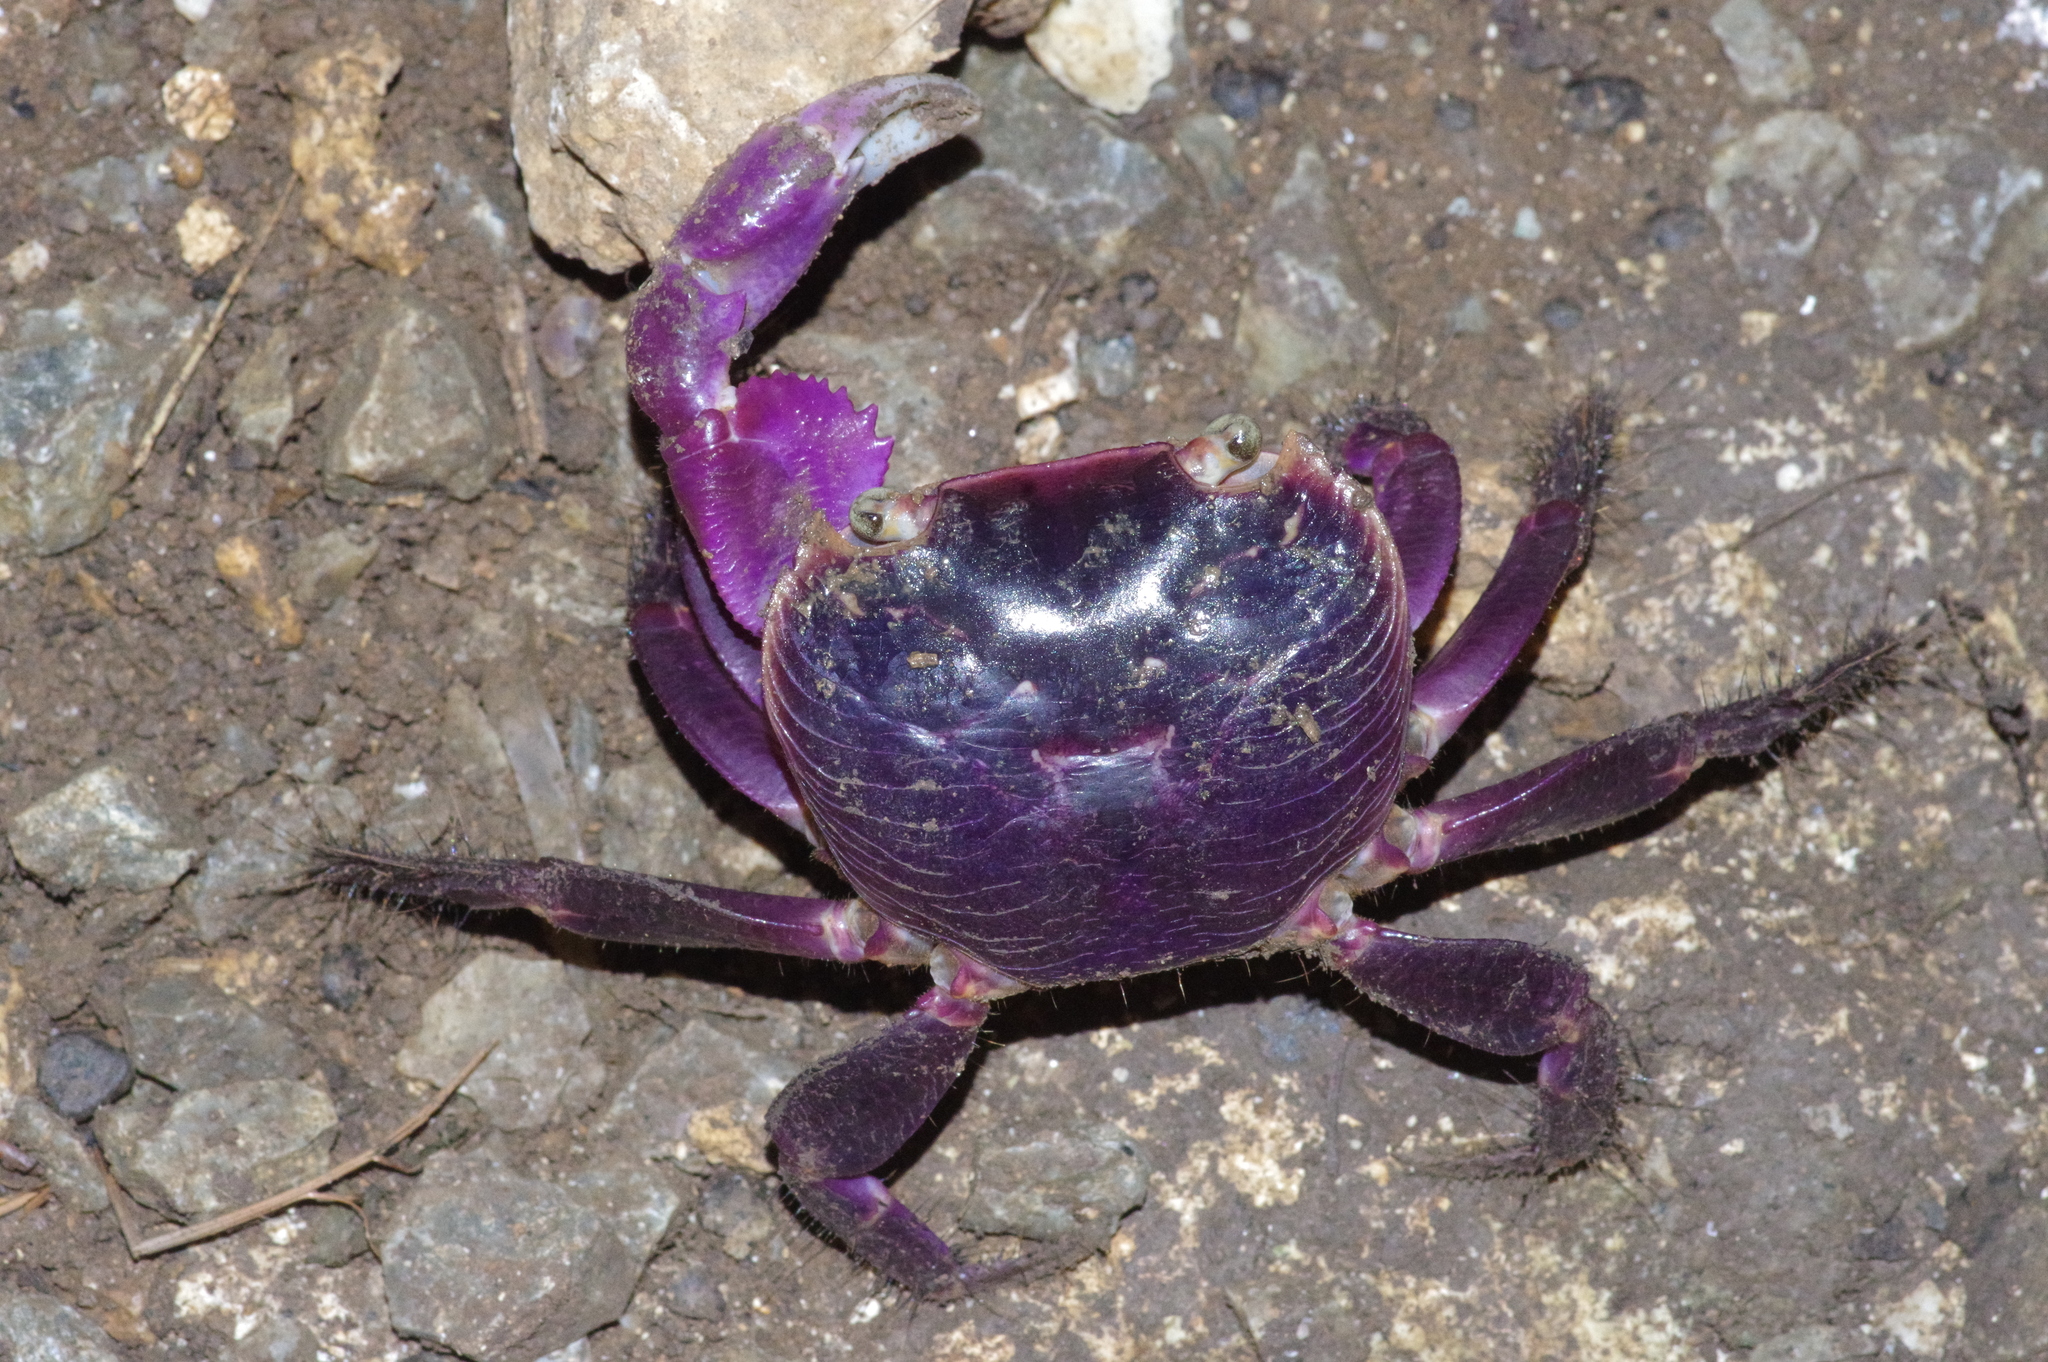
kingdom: Animalia
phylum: Arthropoda
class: Malacostraca
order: Decapoda
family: Grapsidae
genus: Geograpsus
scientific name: Geograpsus grayi
